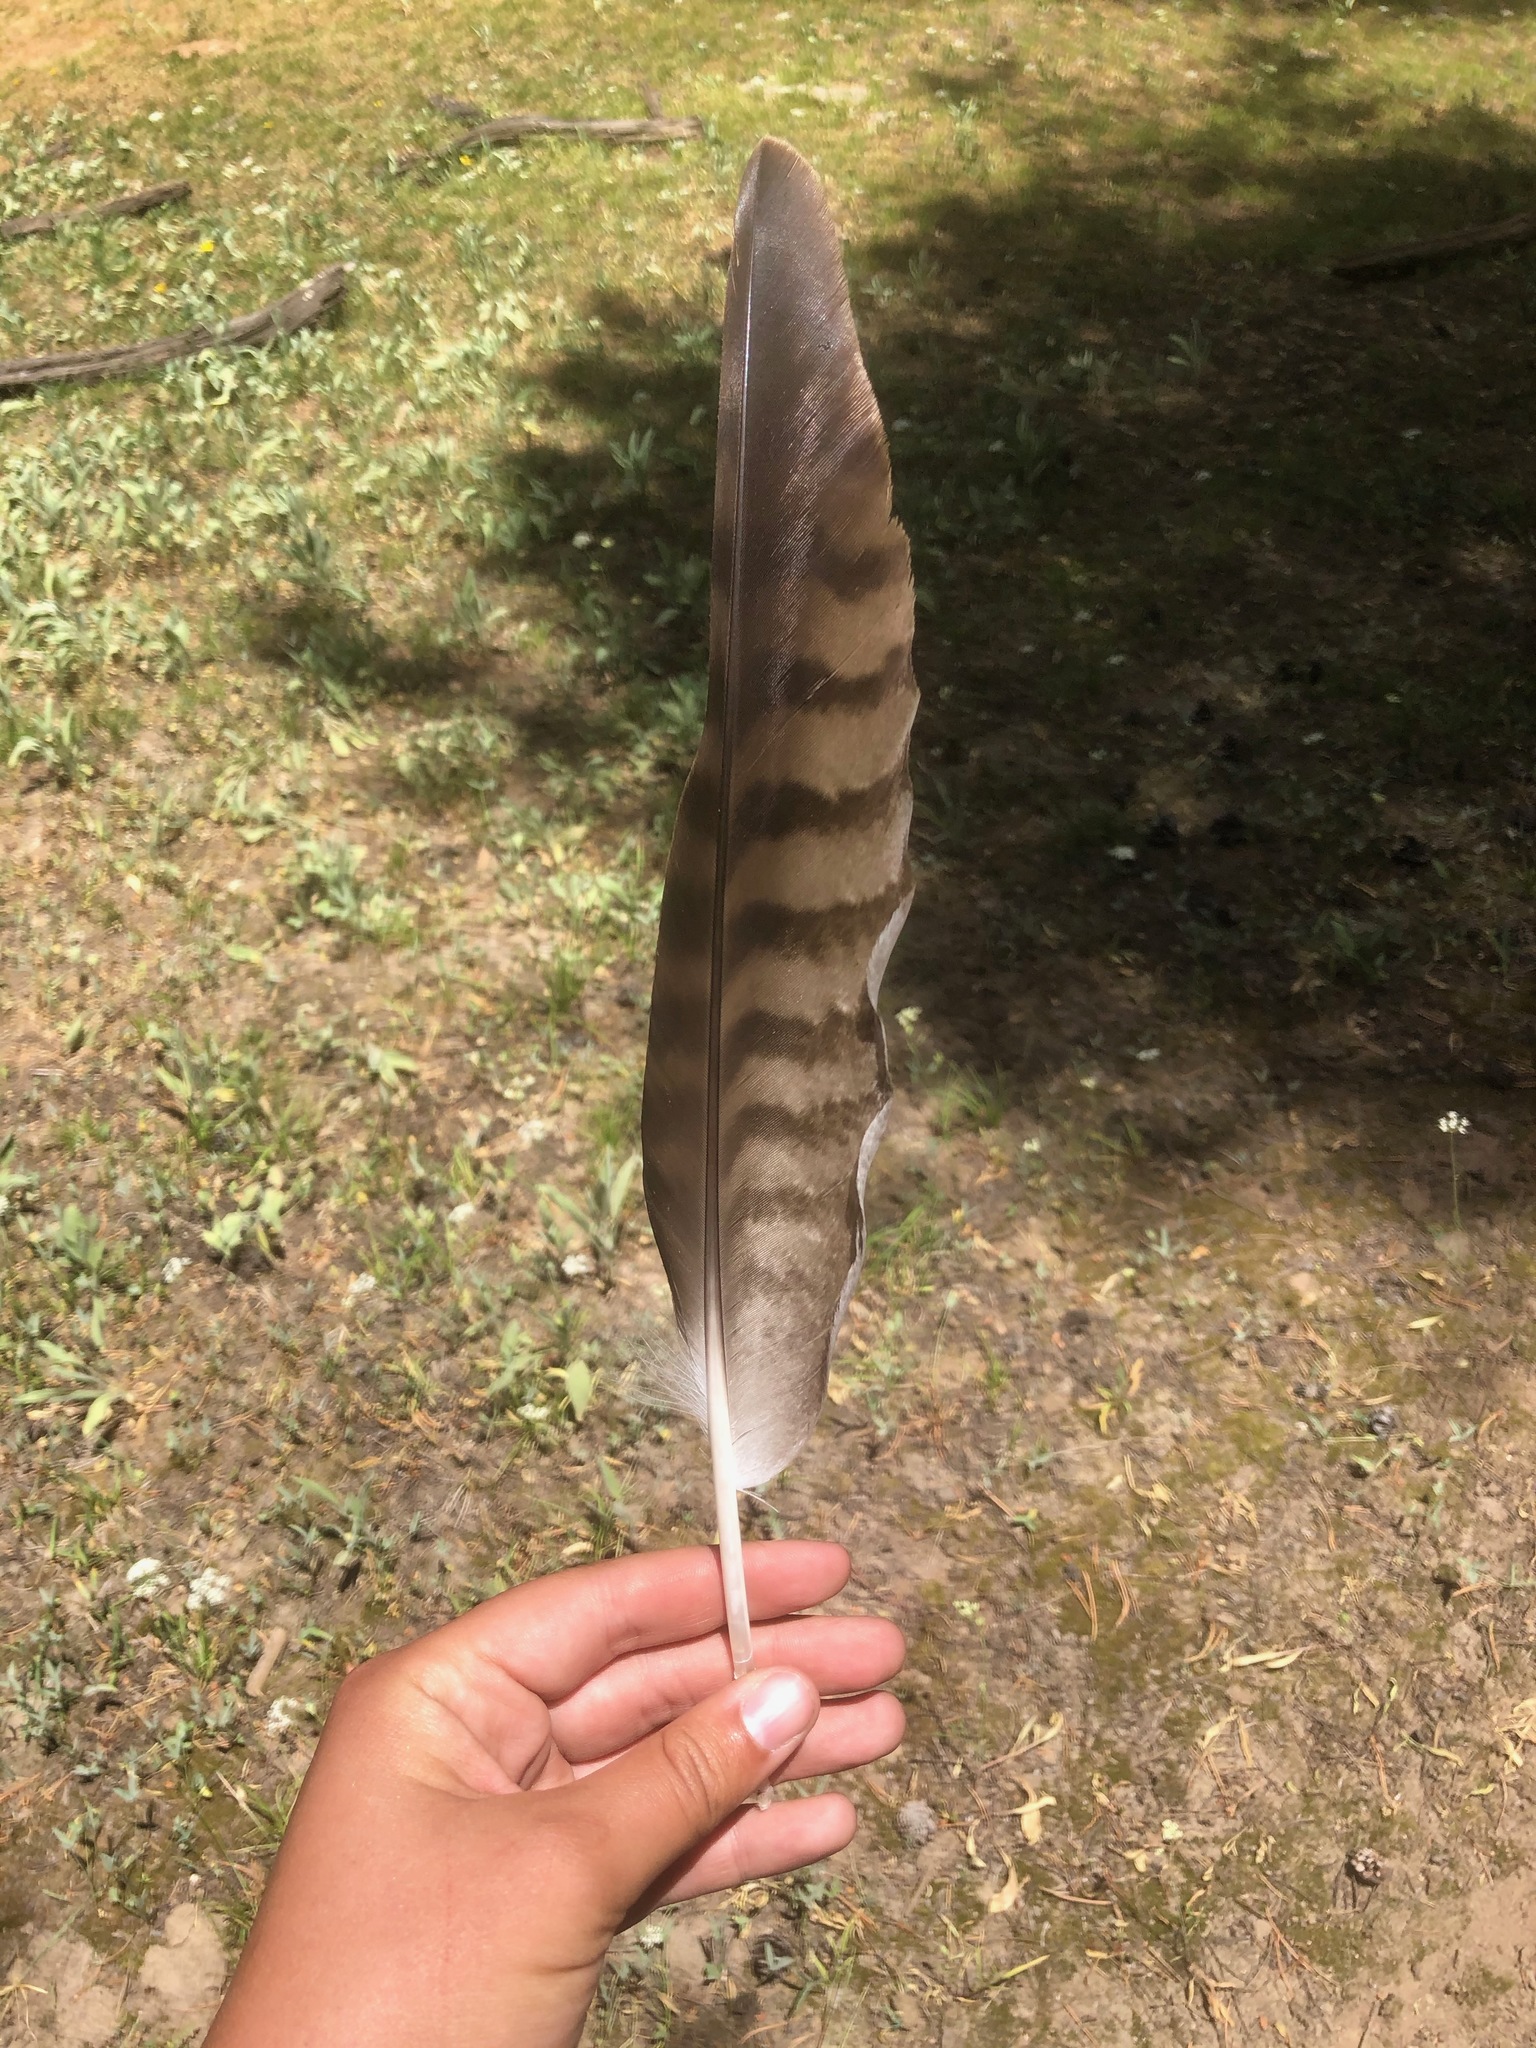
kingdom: Animalia
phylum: Chordata
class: Aves
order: Accipitriformes
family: Accipitridae
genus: Buteo
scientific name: Buteo jamaicensis
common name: Red-tailed hawk
